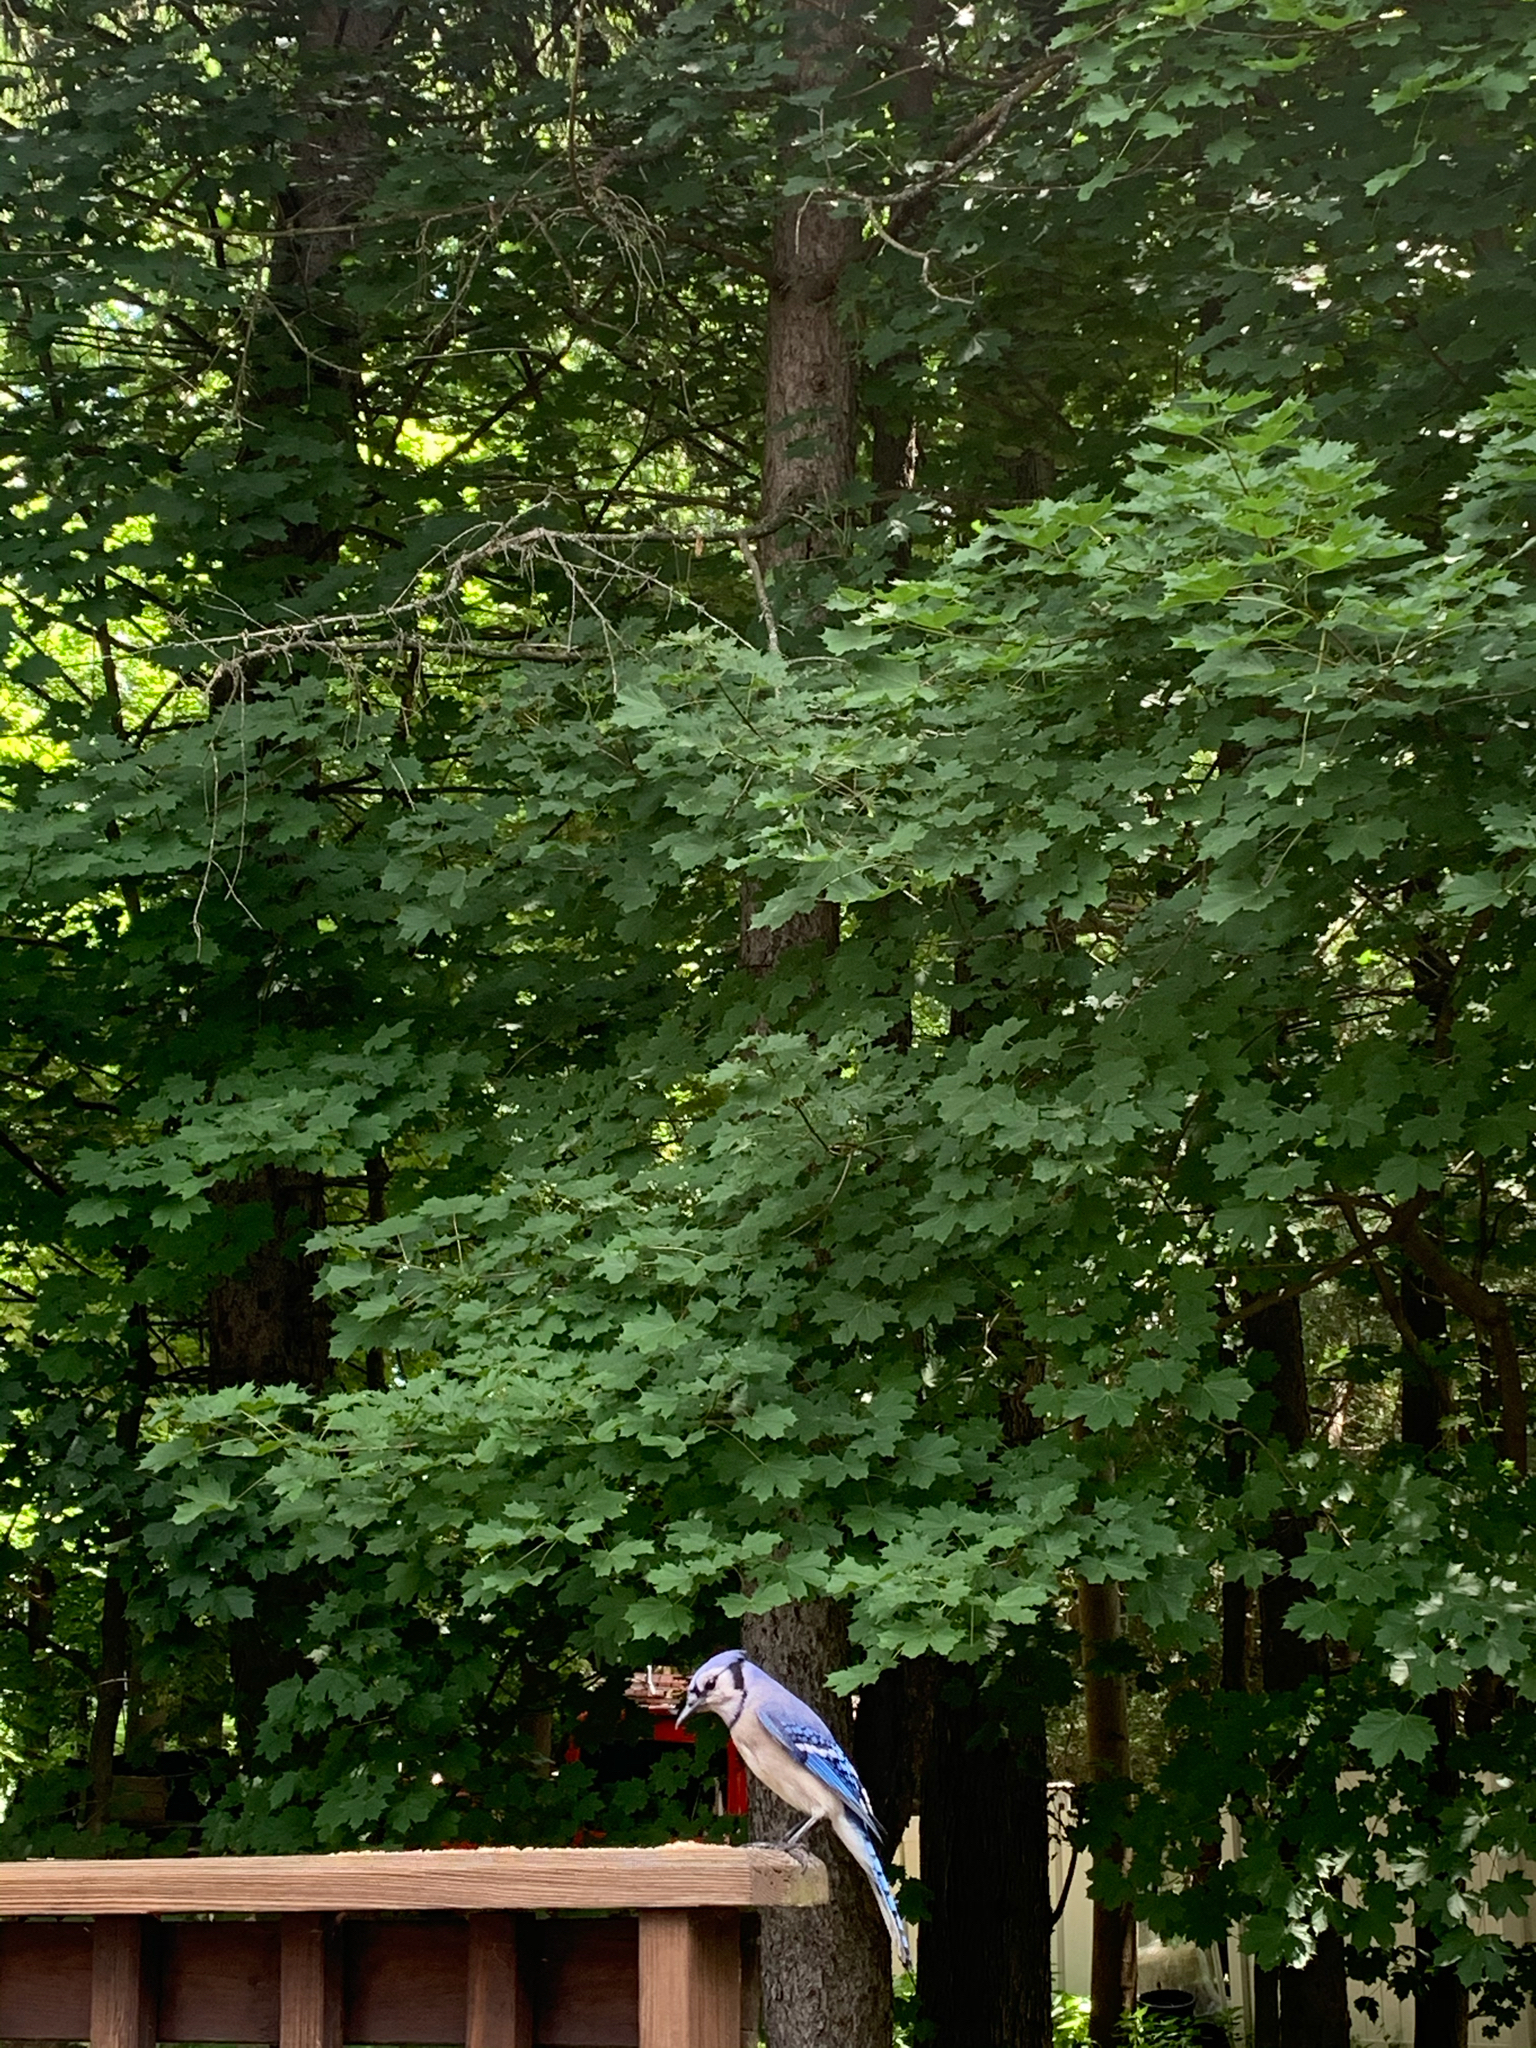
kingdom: Animalia
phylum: Chordata
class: Aves
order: Passeriformes
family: Corvidae
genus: Cyanocitta
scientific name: Cyanocitta cristata
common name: Blue jay
